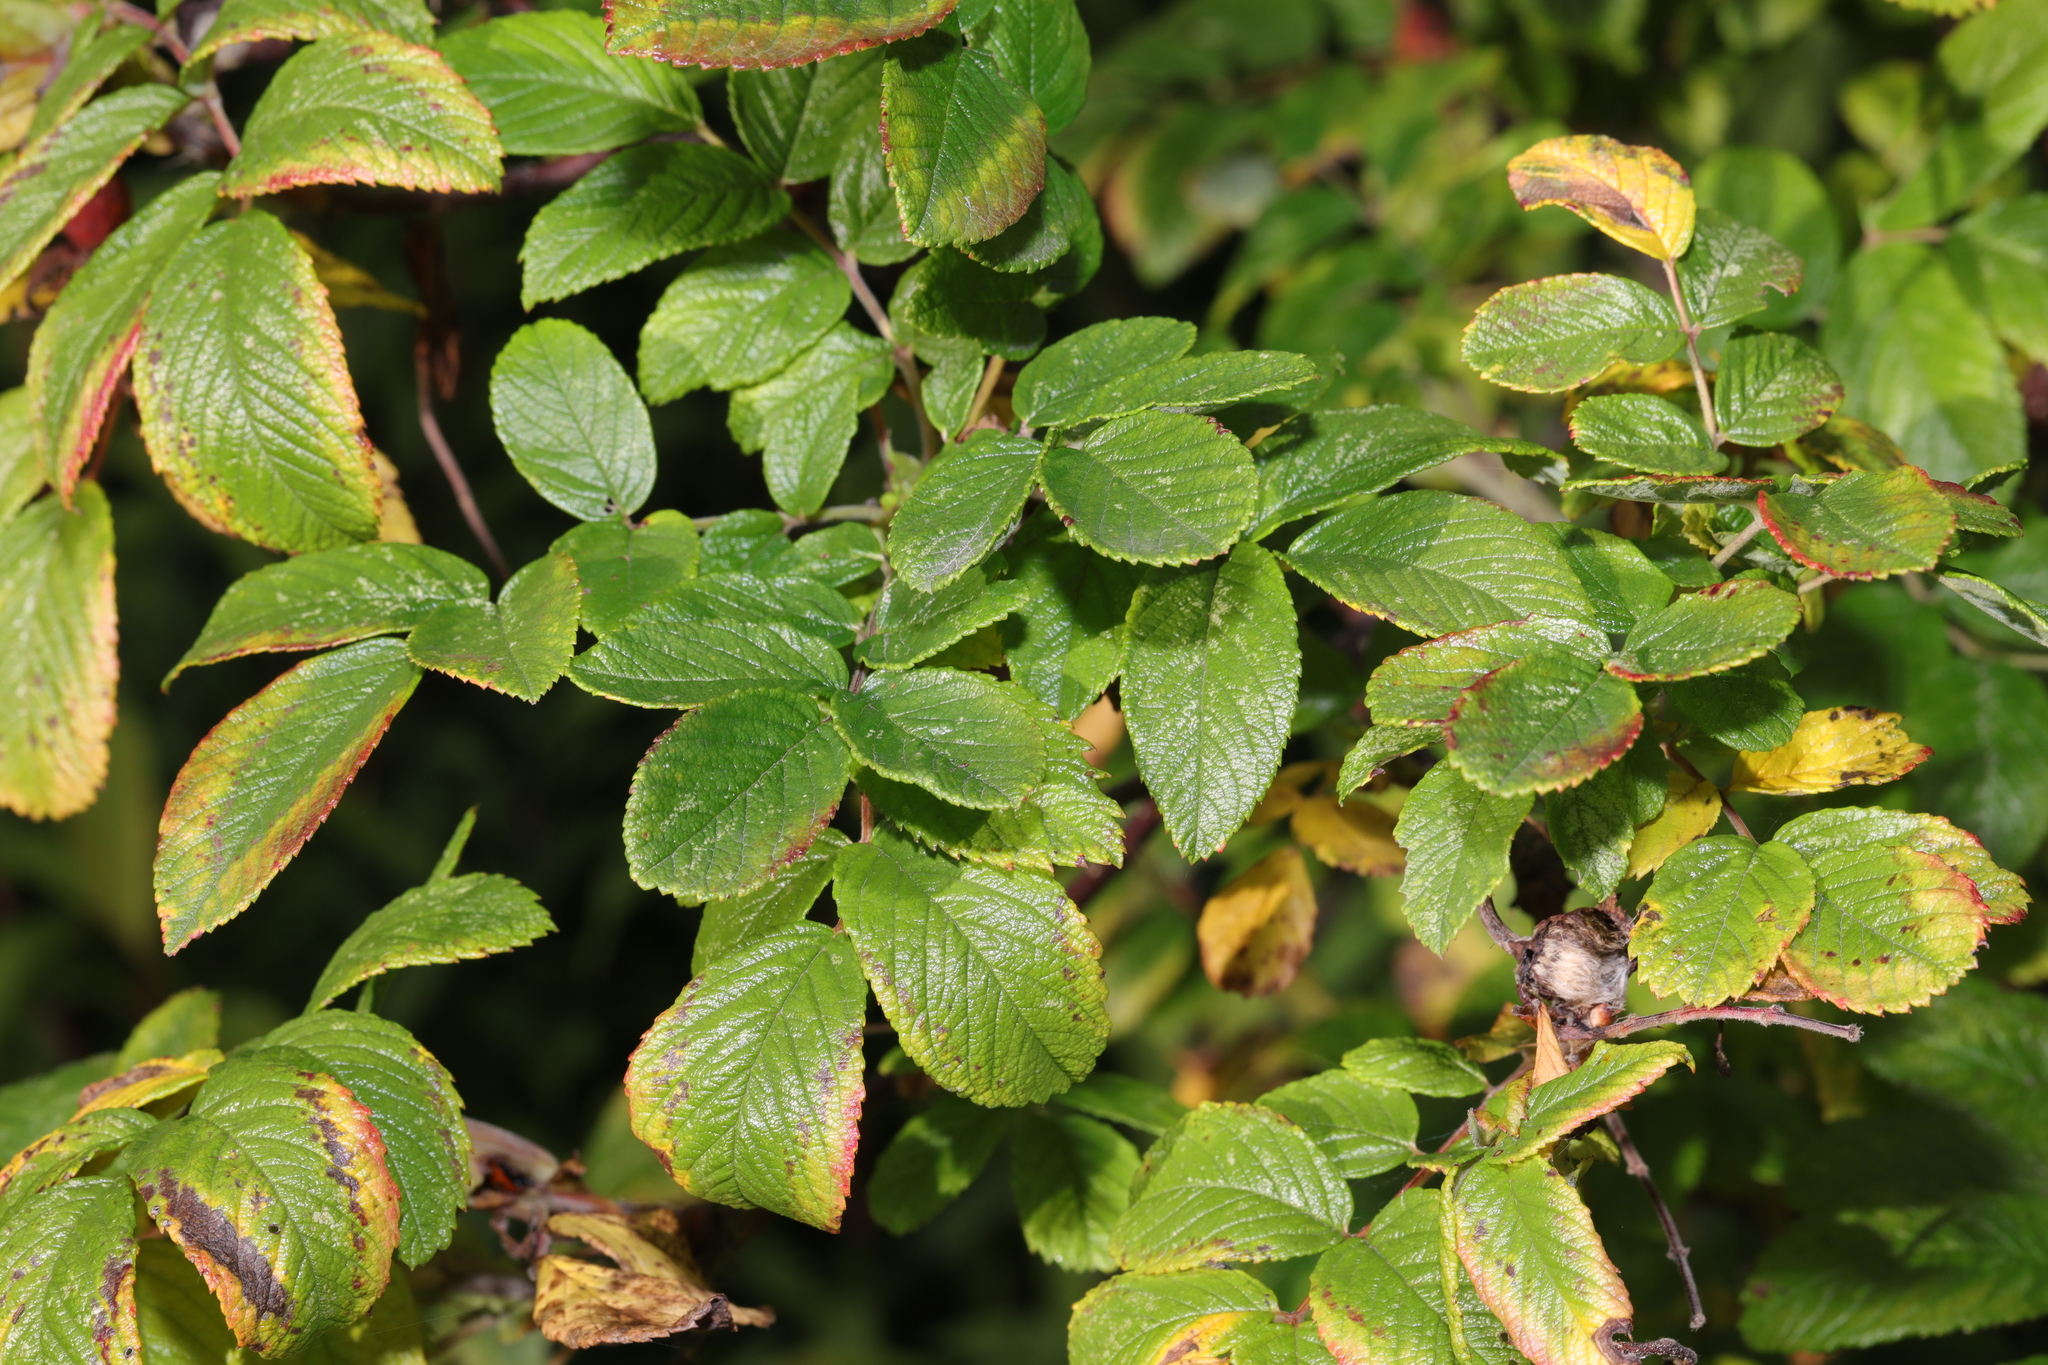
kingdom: Plantae
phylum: Tracheophyta
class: Magnoliopsida
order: Rosales
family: Rosaceae
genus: Rosa
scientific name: Rosa rugosa
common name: Japanese rose
